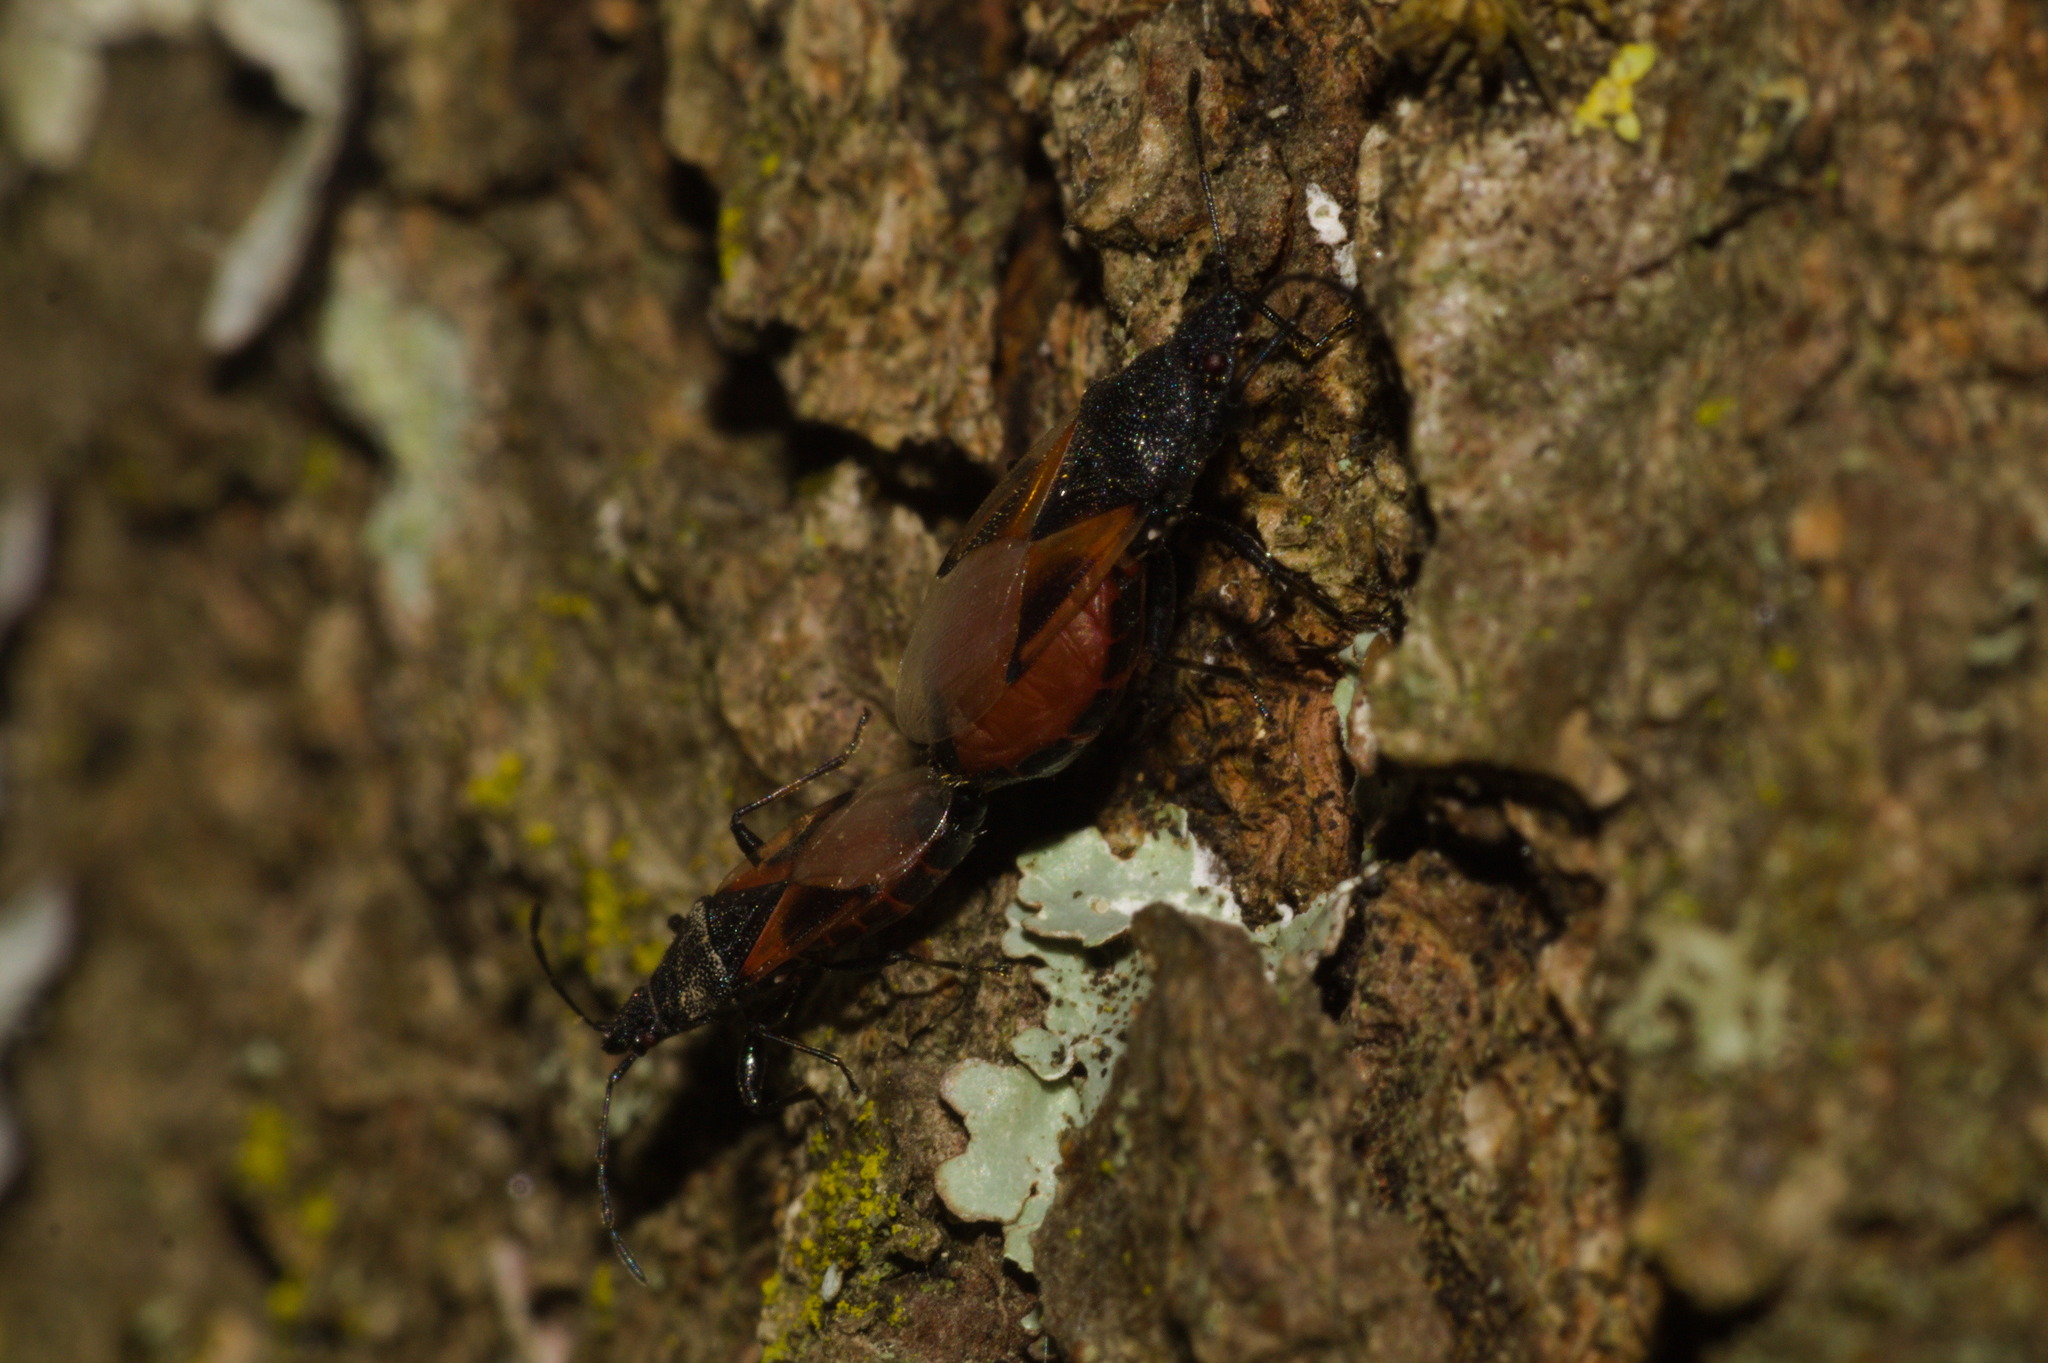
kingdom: Animalia
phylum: Arthropoda
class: Insecta
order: Hemiptera
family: Oxycarenidae
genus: Oxycarenus
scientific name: Oxycarenus lavaterae
